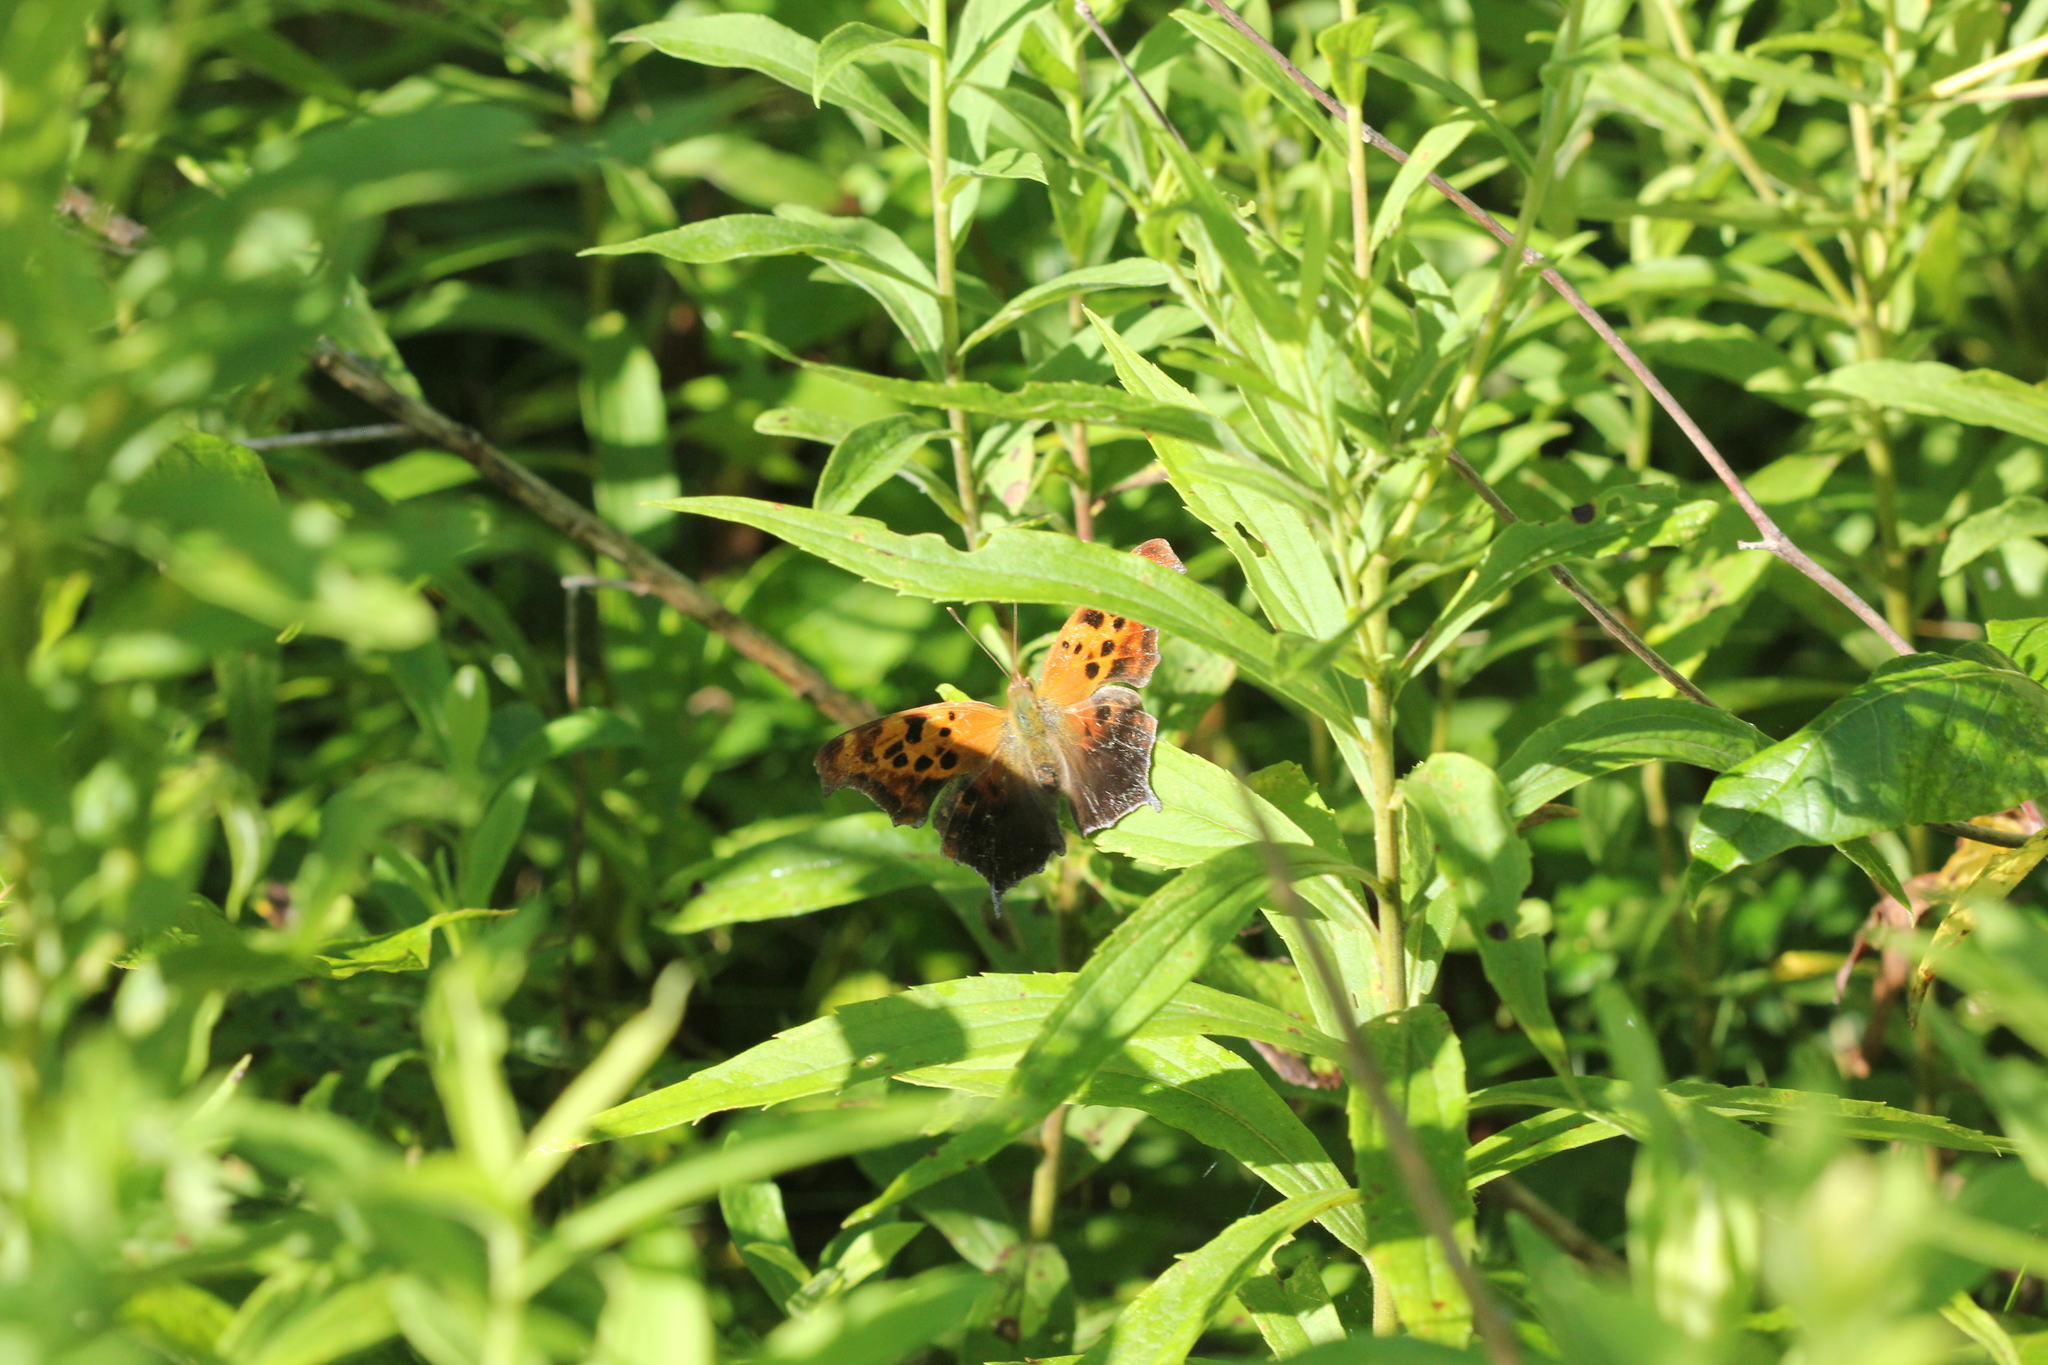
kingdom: Animalia
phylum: Arthropoda
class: Insecta
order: Lepidoptera
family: Nymphalidae
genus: Polygonia
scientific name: Polygonia interrogationis
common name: Question mark
